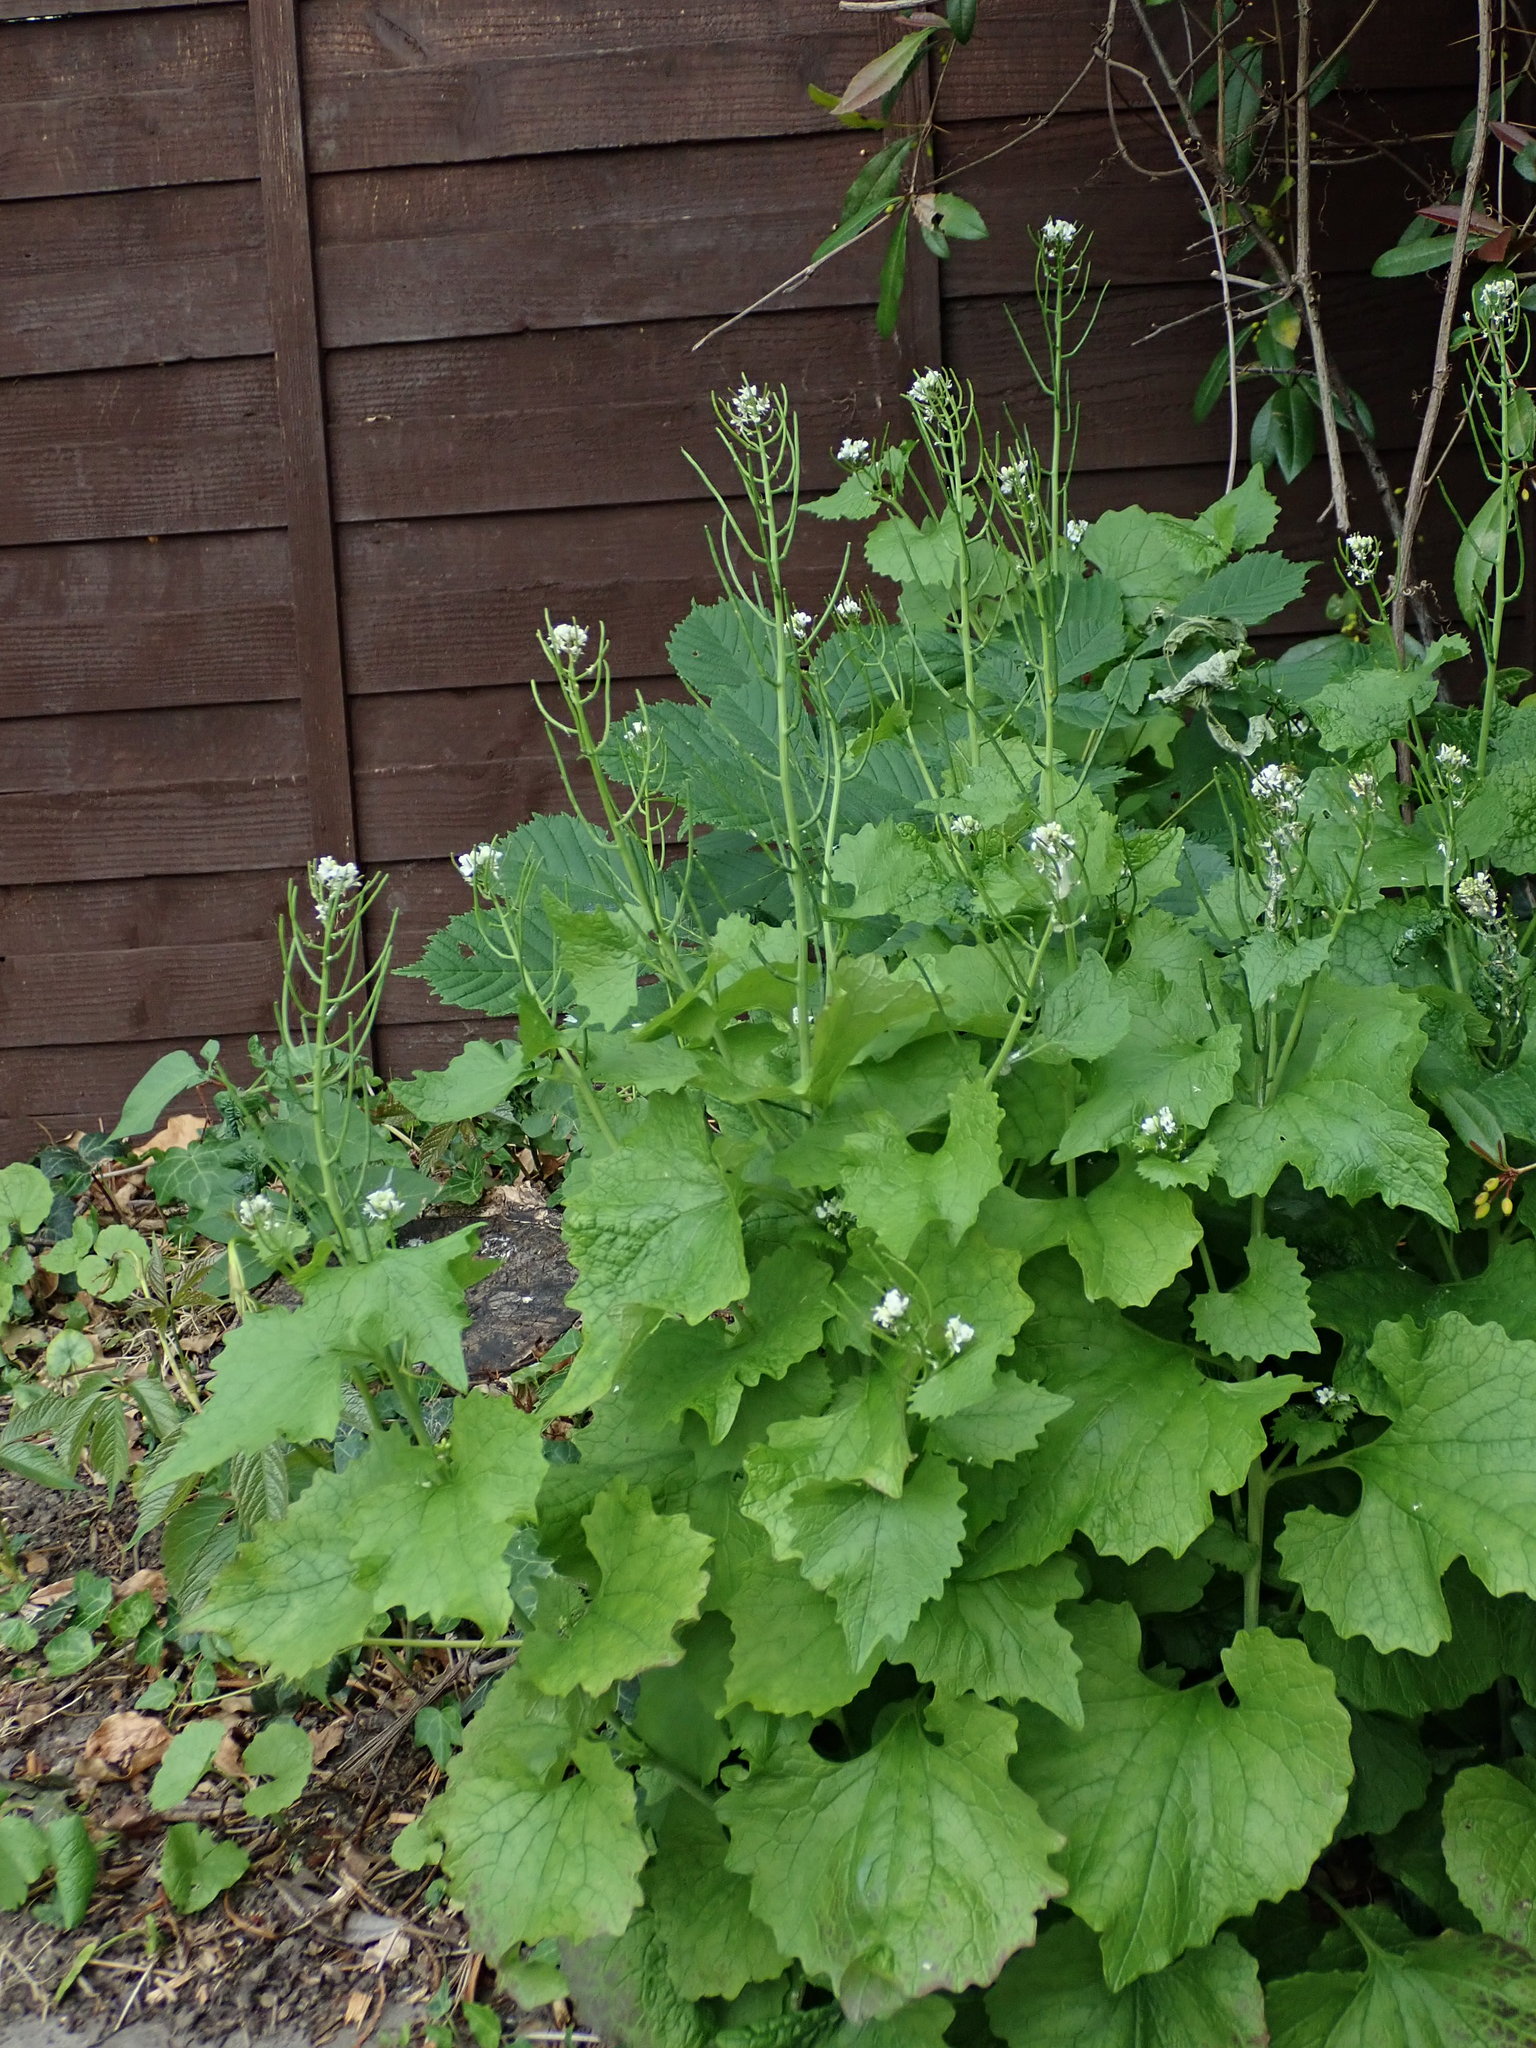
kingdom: Plantae
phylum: Tracheophyta
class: Magnoliopsida
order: Brassicales
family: Brassicaceae
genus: Alliaria
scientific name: Alliaria petiolata
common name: Garlic mustard
